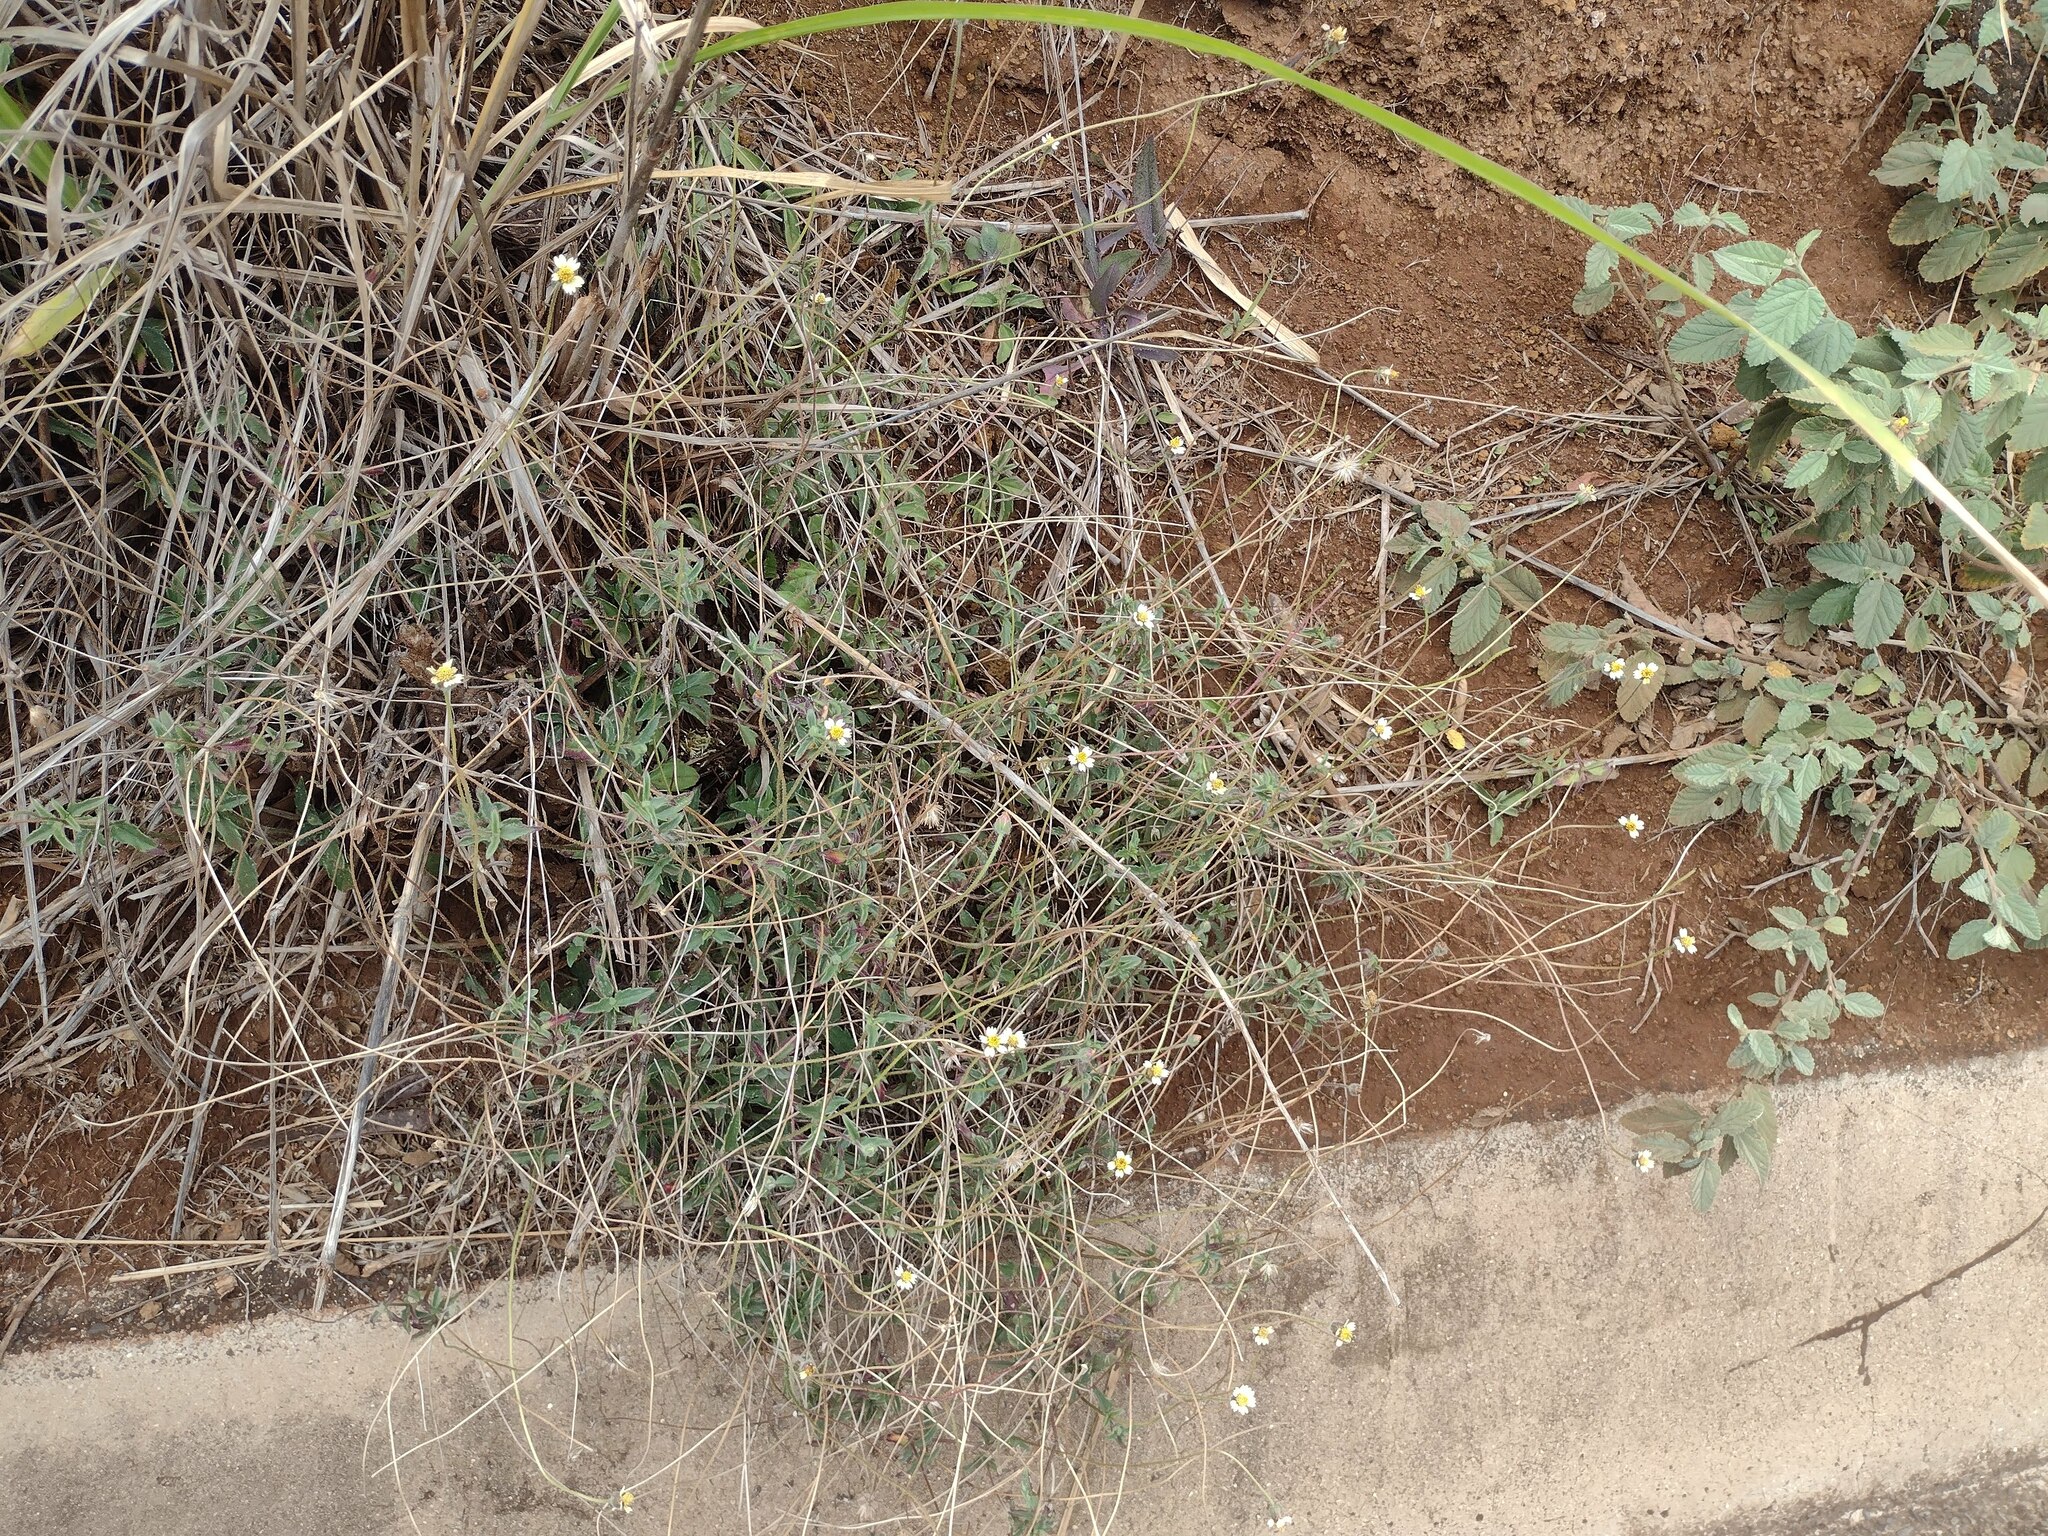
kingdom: Plantae
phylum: Tracheophyta
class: Magnoliopsida
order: Asterales
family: Asteraceae
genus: Tridax
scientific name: Tridax procumbens
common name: Coatbuttons
